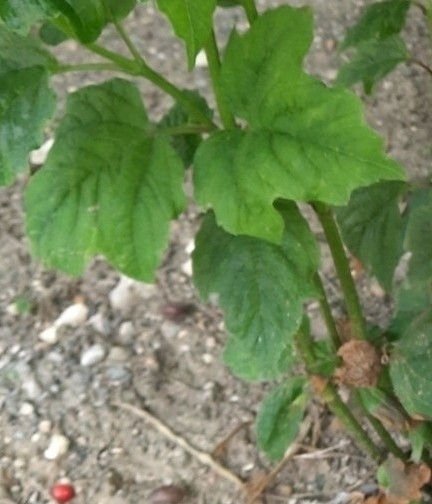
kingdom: Plantae
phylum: Tracheophyta
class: Magnoliopsida
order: Dipsacales
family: Viburnaceae
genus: Viburnum
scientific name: Viburnum opulus
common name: Guelder-rose
